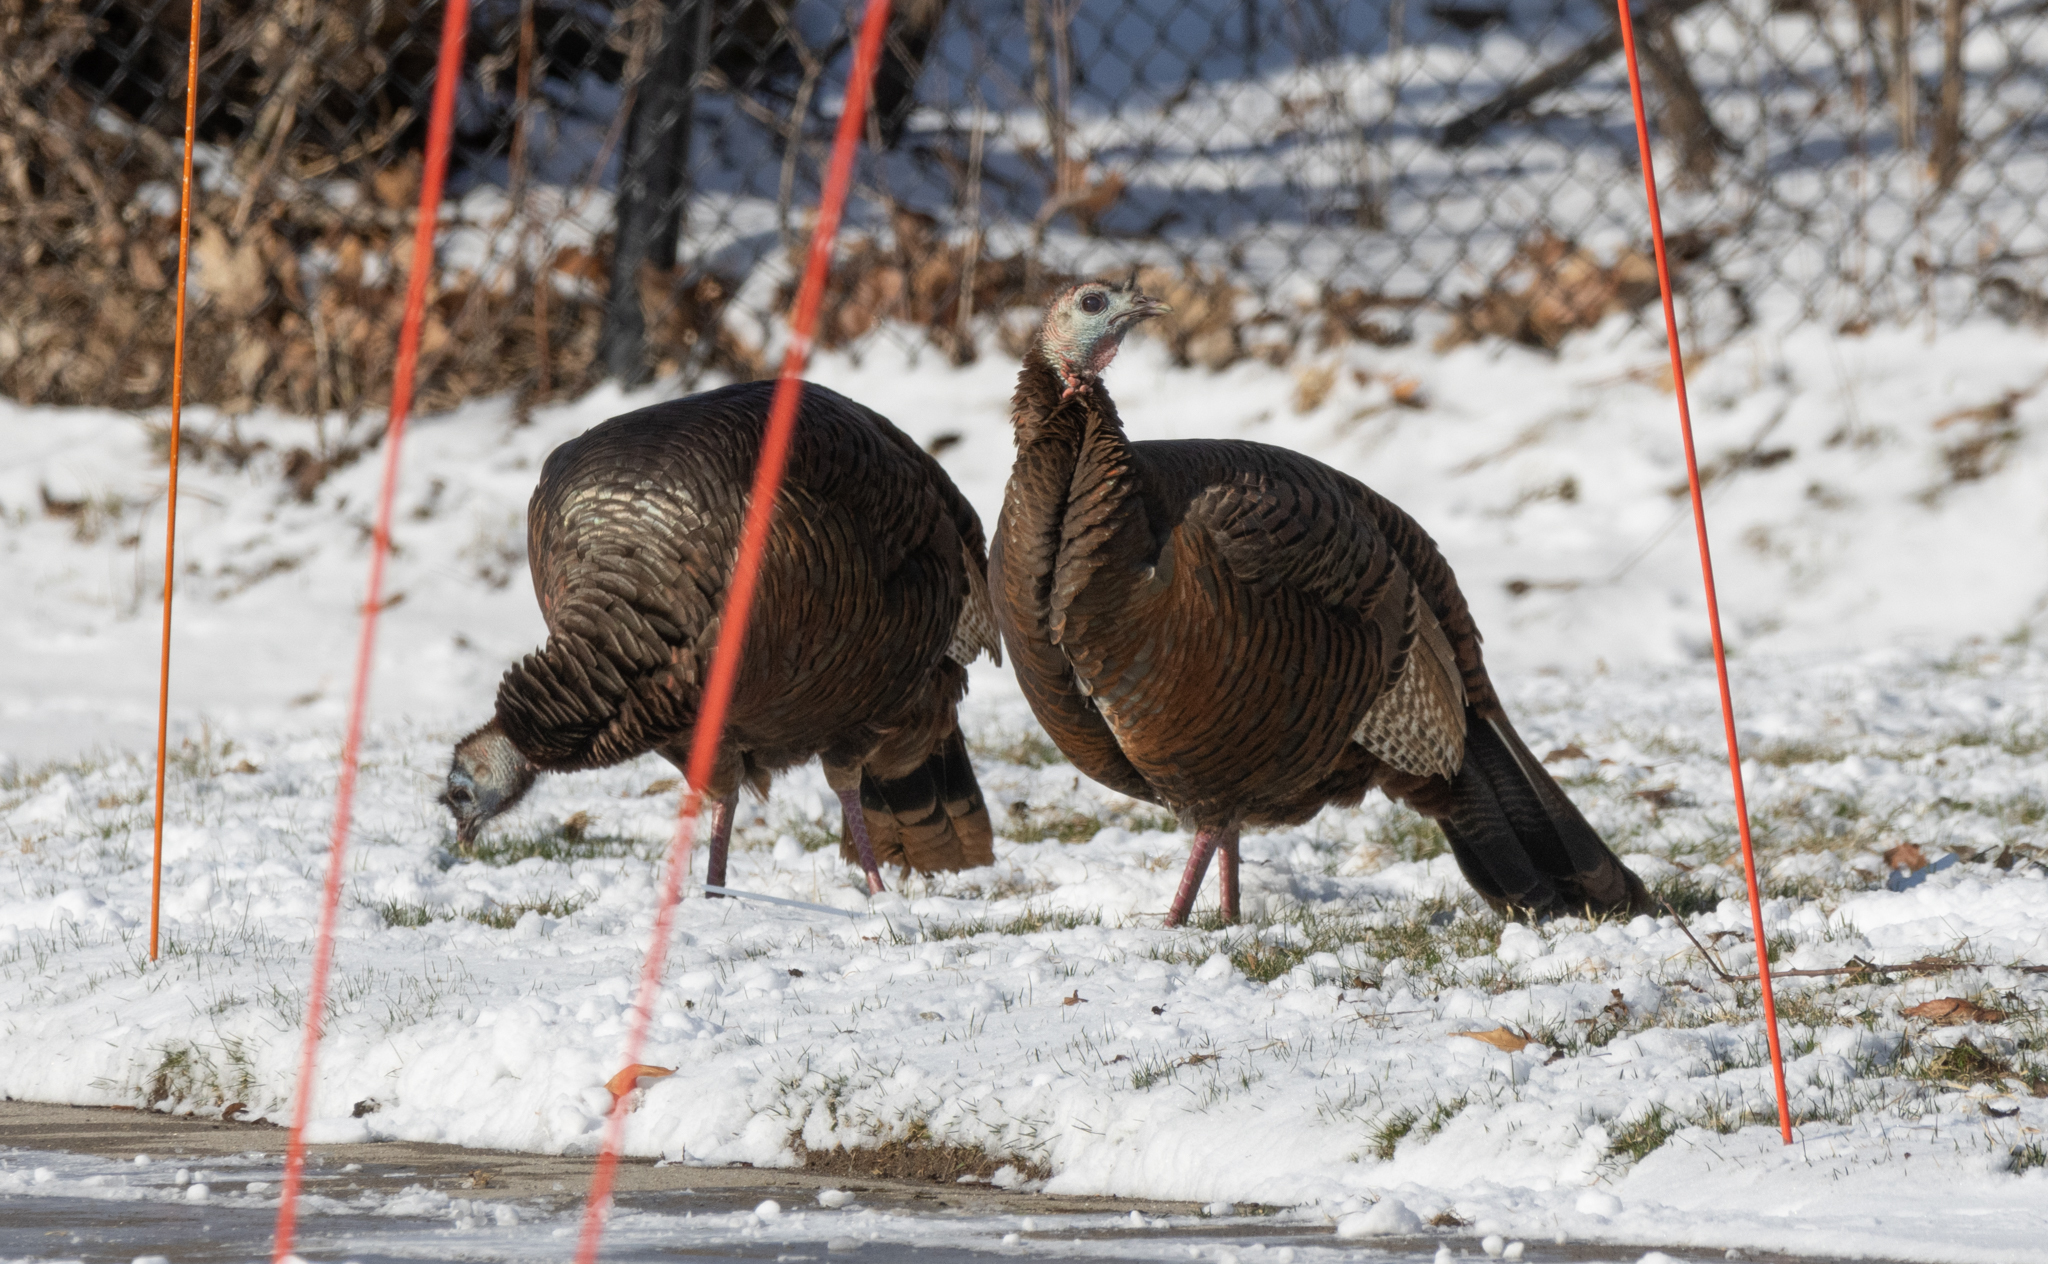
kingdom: Animalia
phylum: Chordata
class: Aves
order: Galliformes
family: Phasianidae
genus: Meleagris
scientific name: Meleagris gallopavo
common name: Wild turkey
